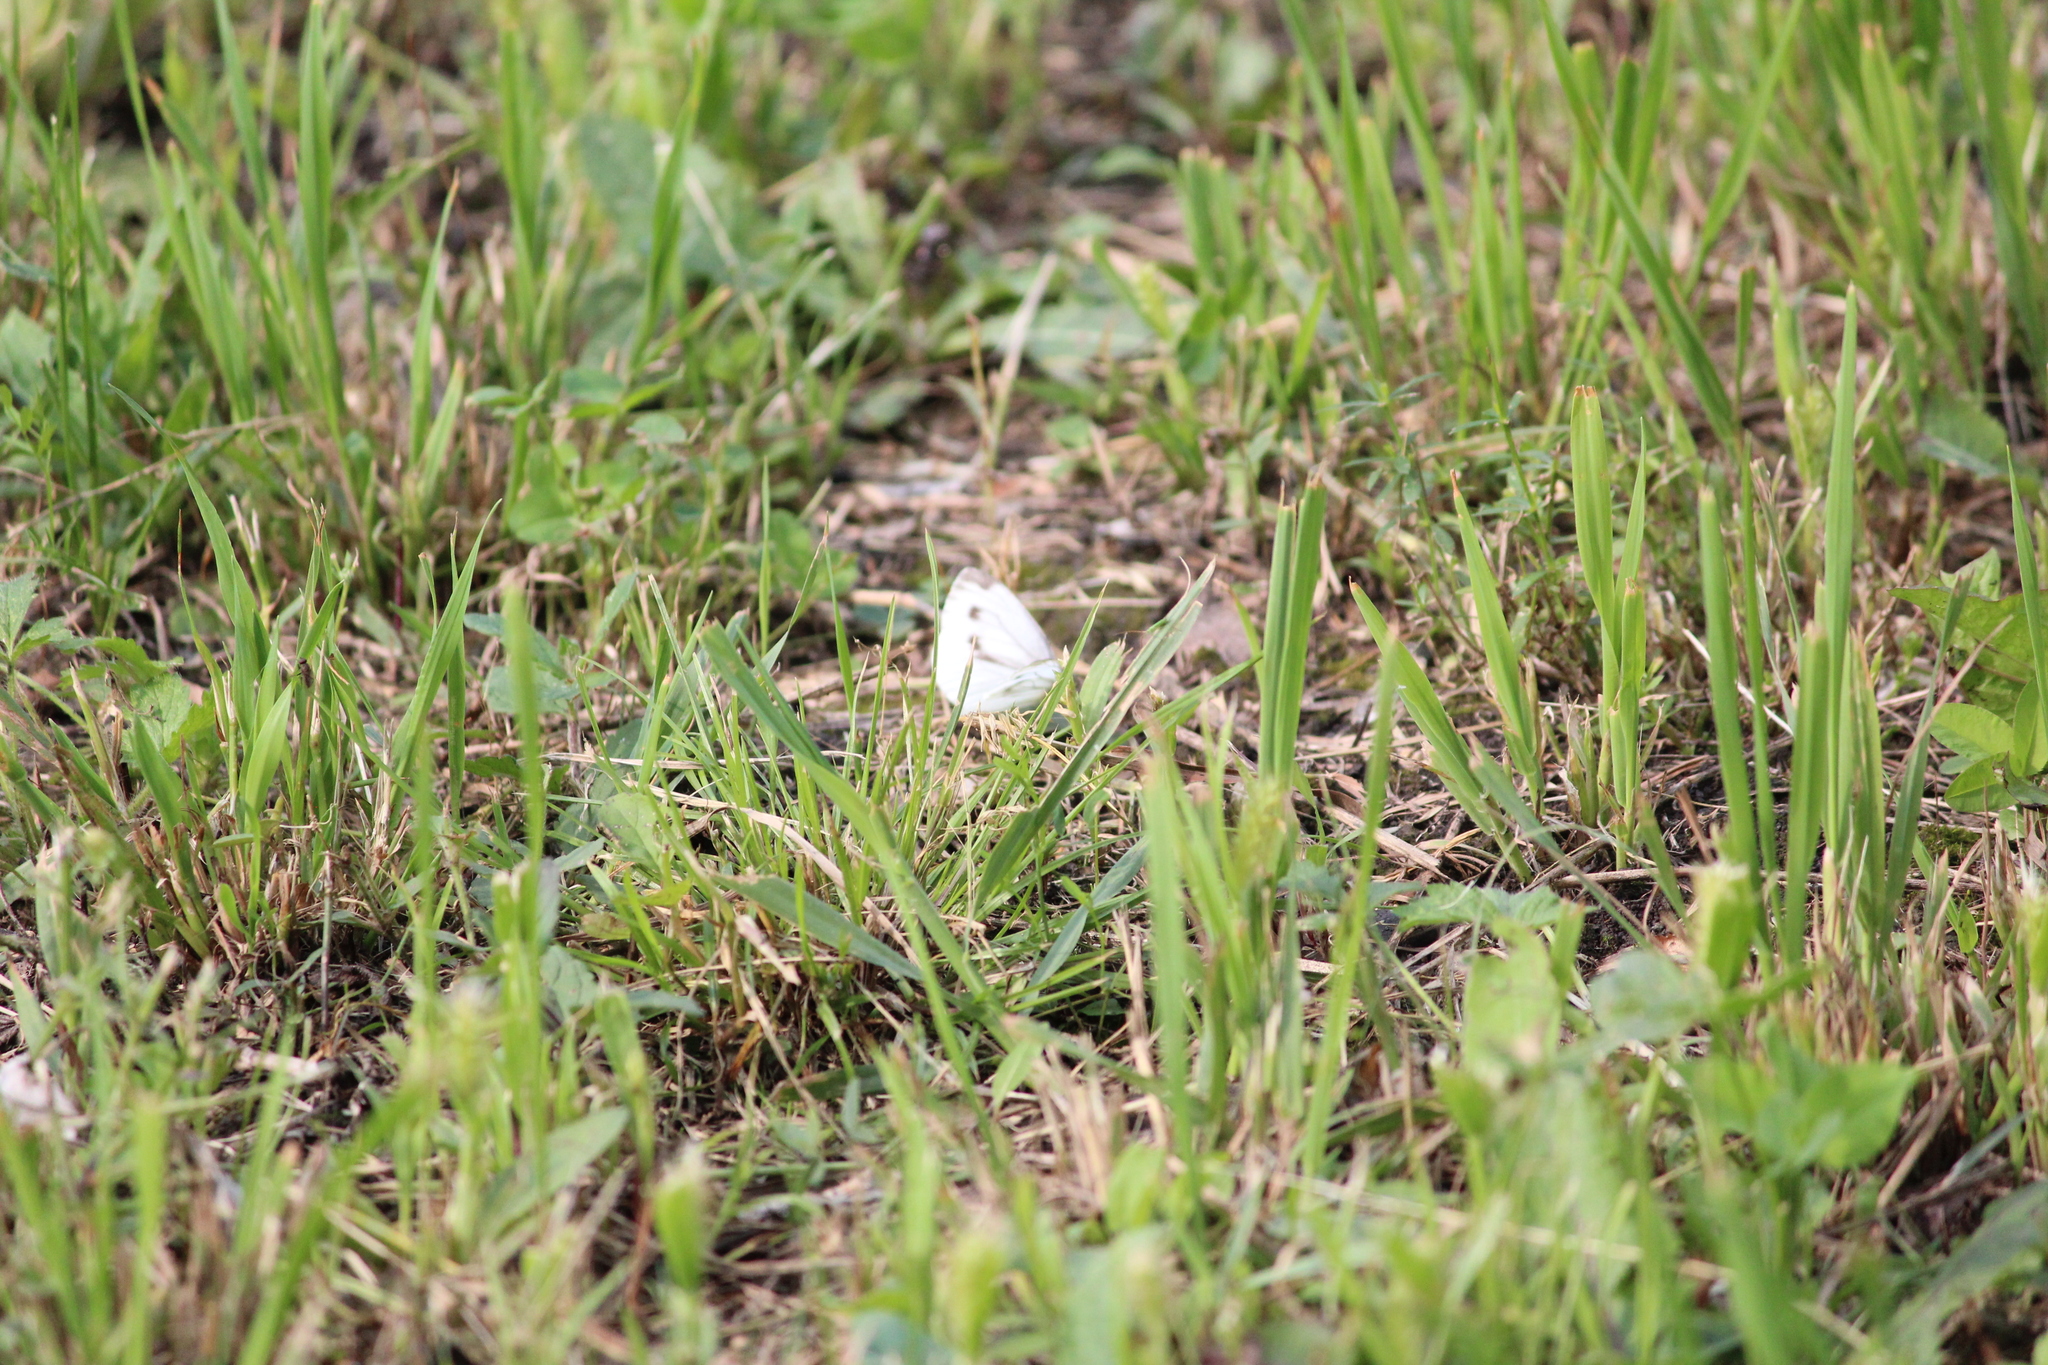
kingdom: Animalia
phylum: Arthropoda
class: Insecta
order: Lepidoptera
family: Pieridae
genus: Pieris
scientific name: Pieris napi
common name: Green-veined white
